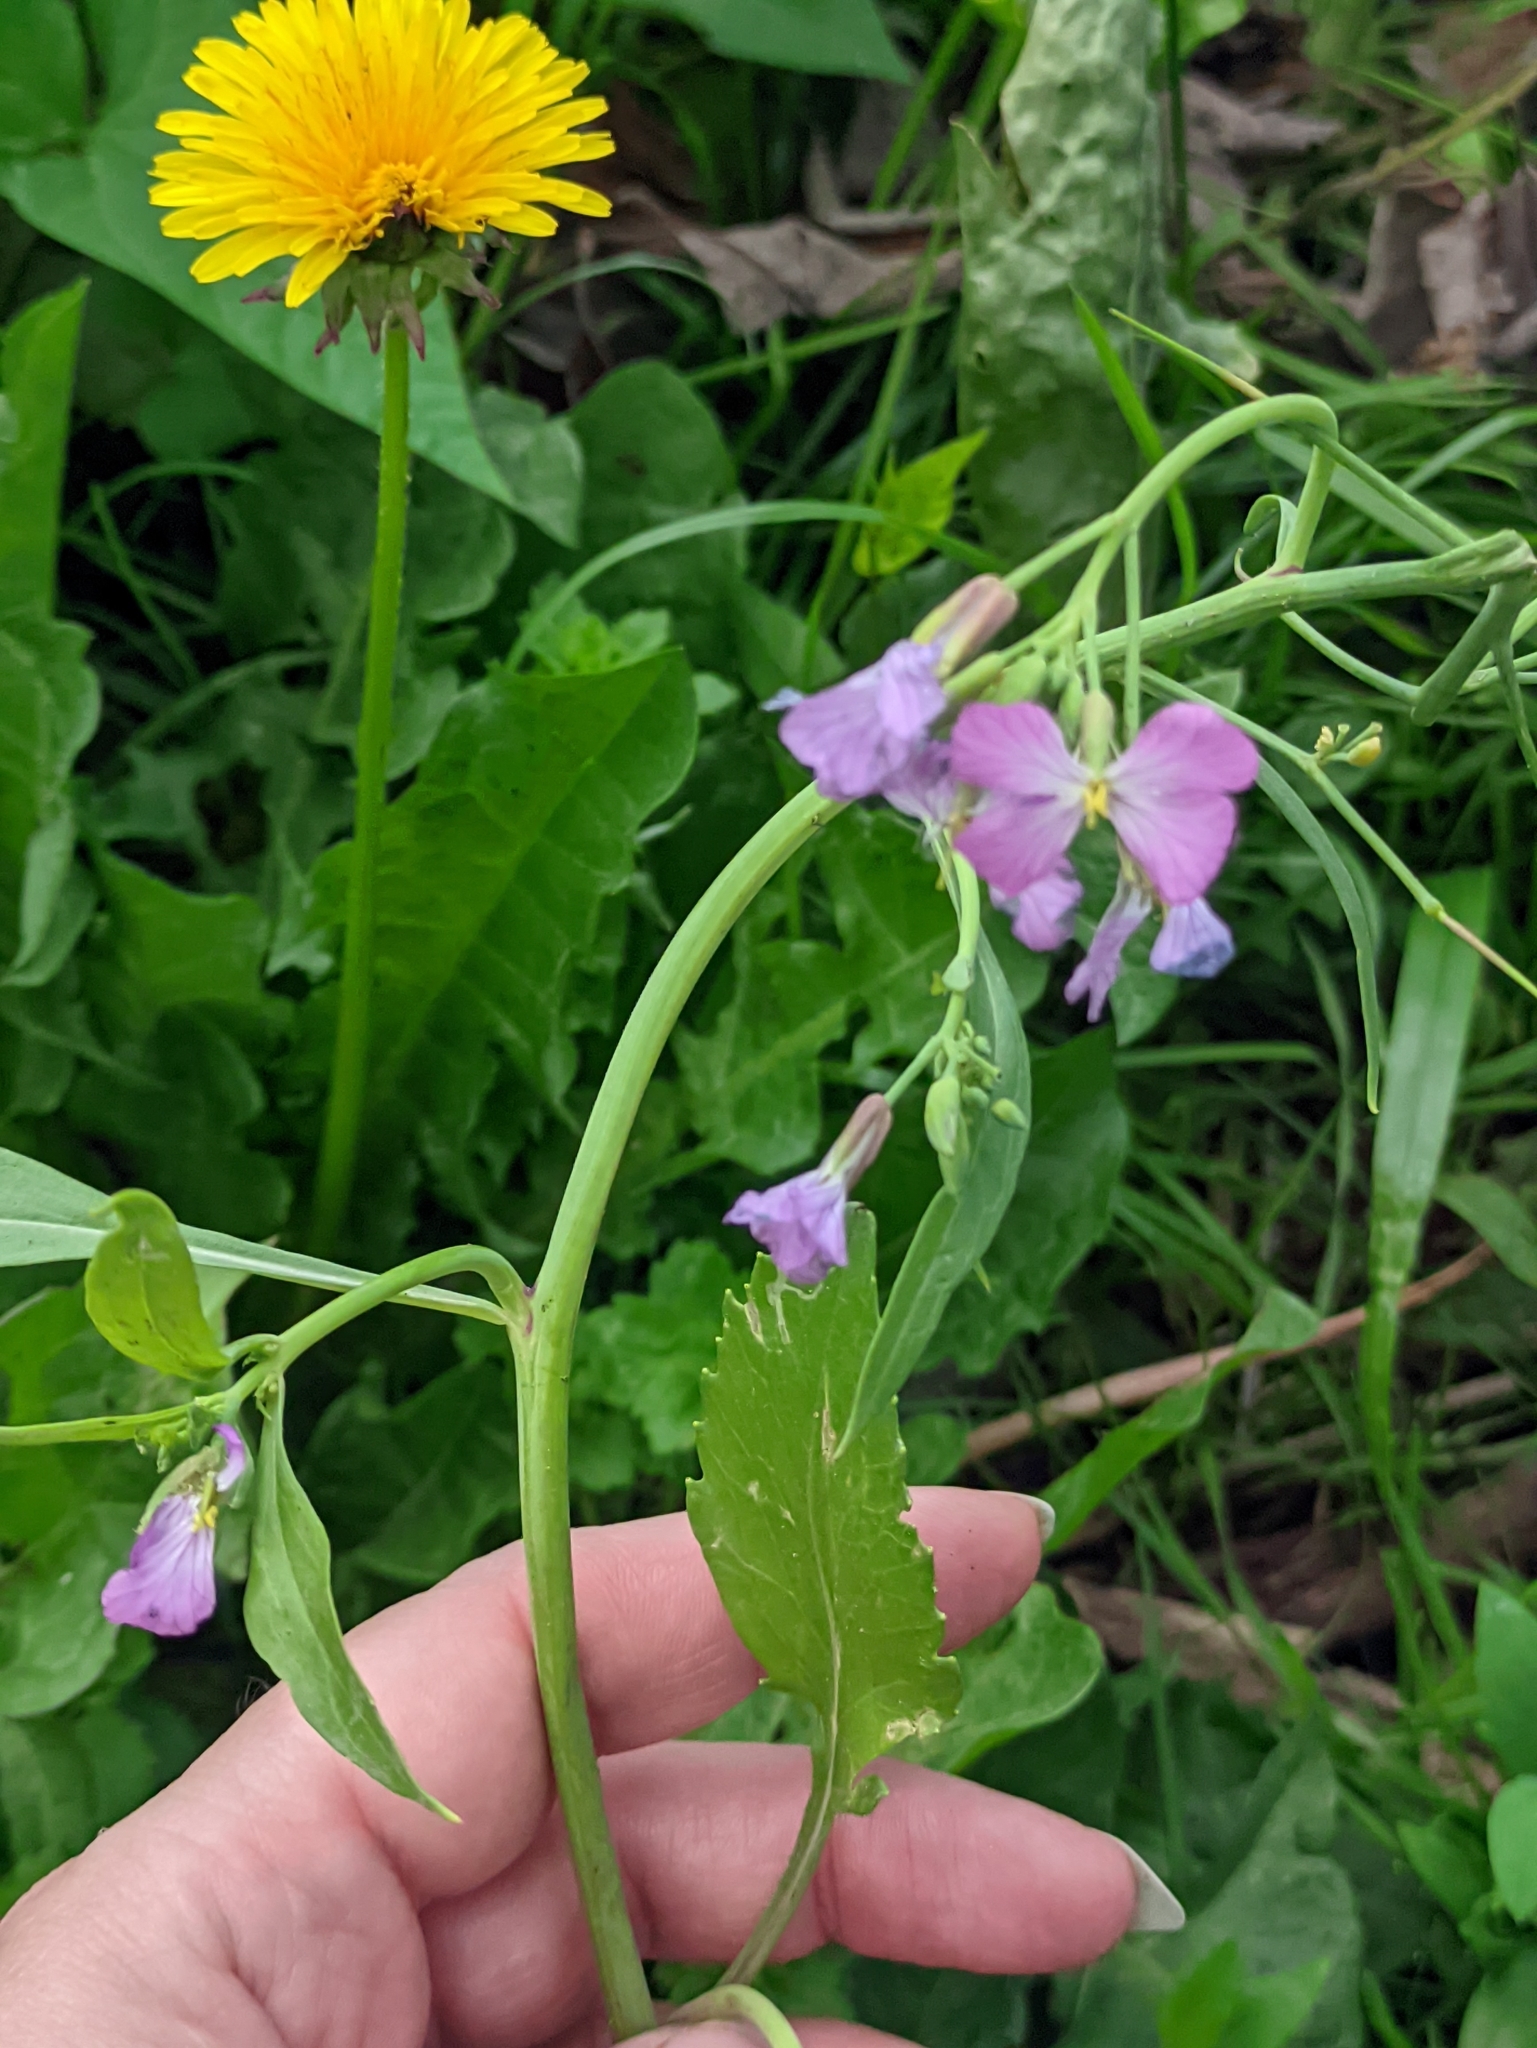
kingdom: Plantae
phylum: Tracheophyta
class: Magnoliopsida
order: Brassicales
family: Brassicaceae
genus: Raphanus
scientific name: Raphanus sativus
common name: Cultivated radish
